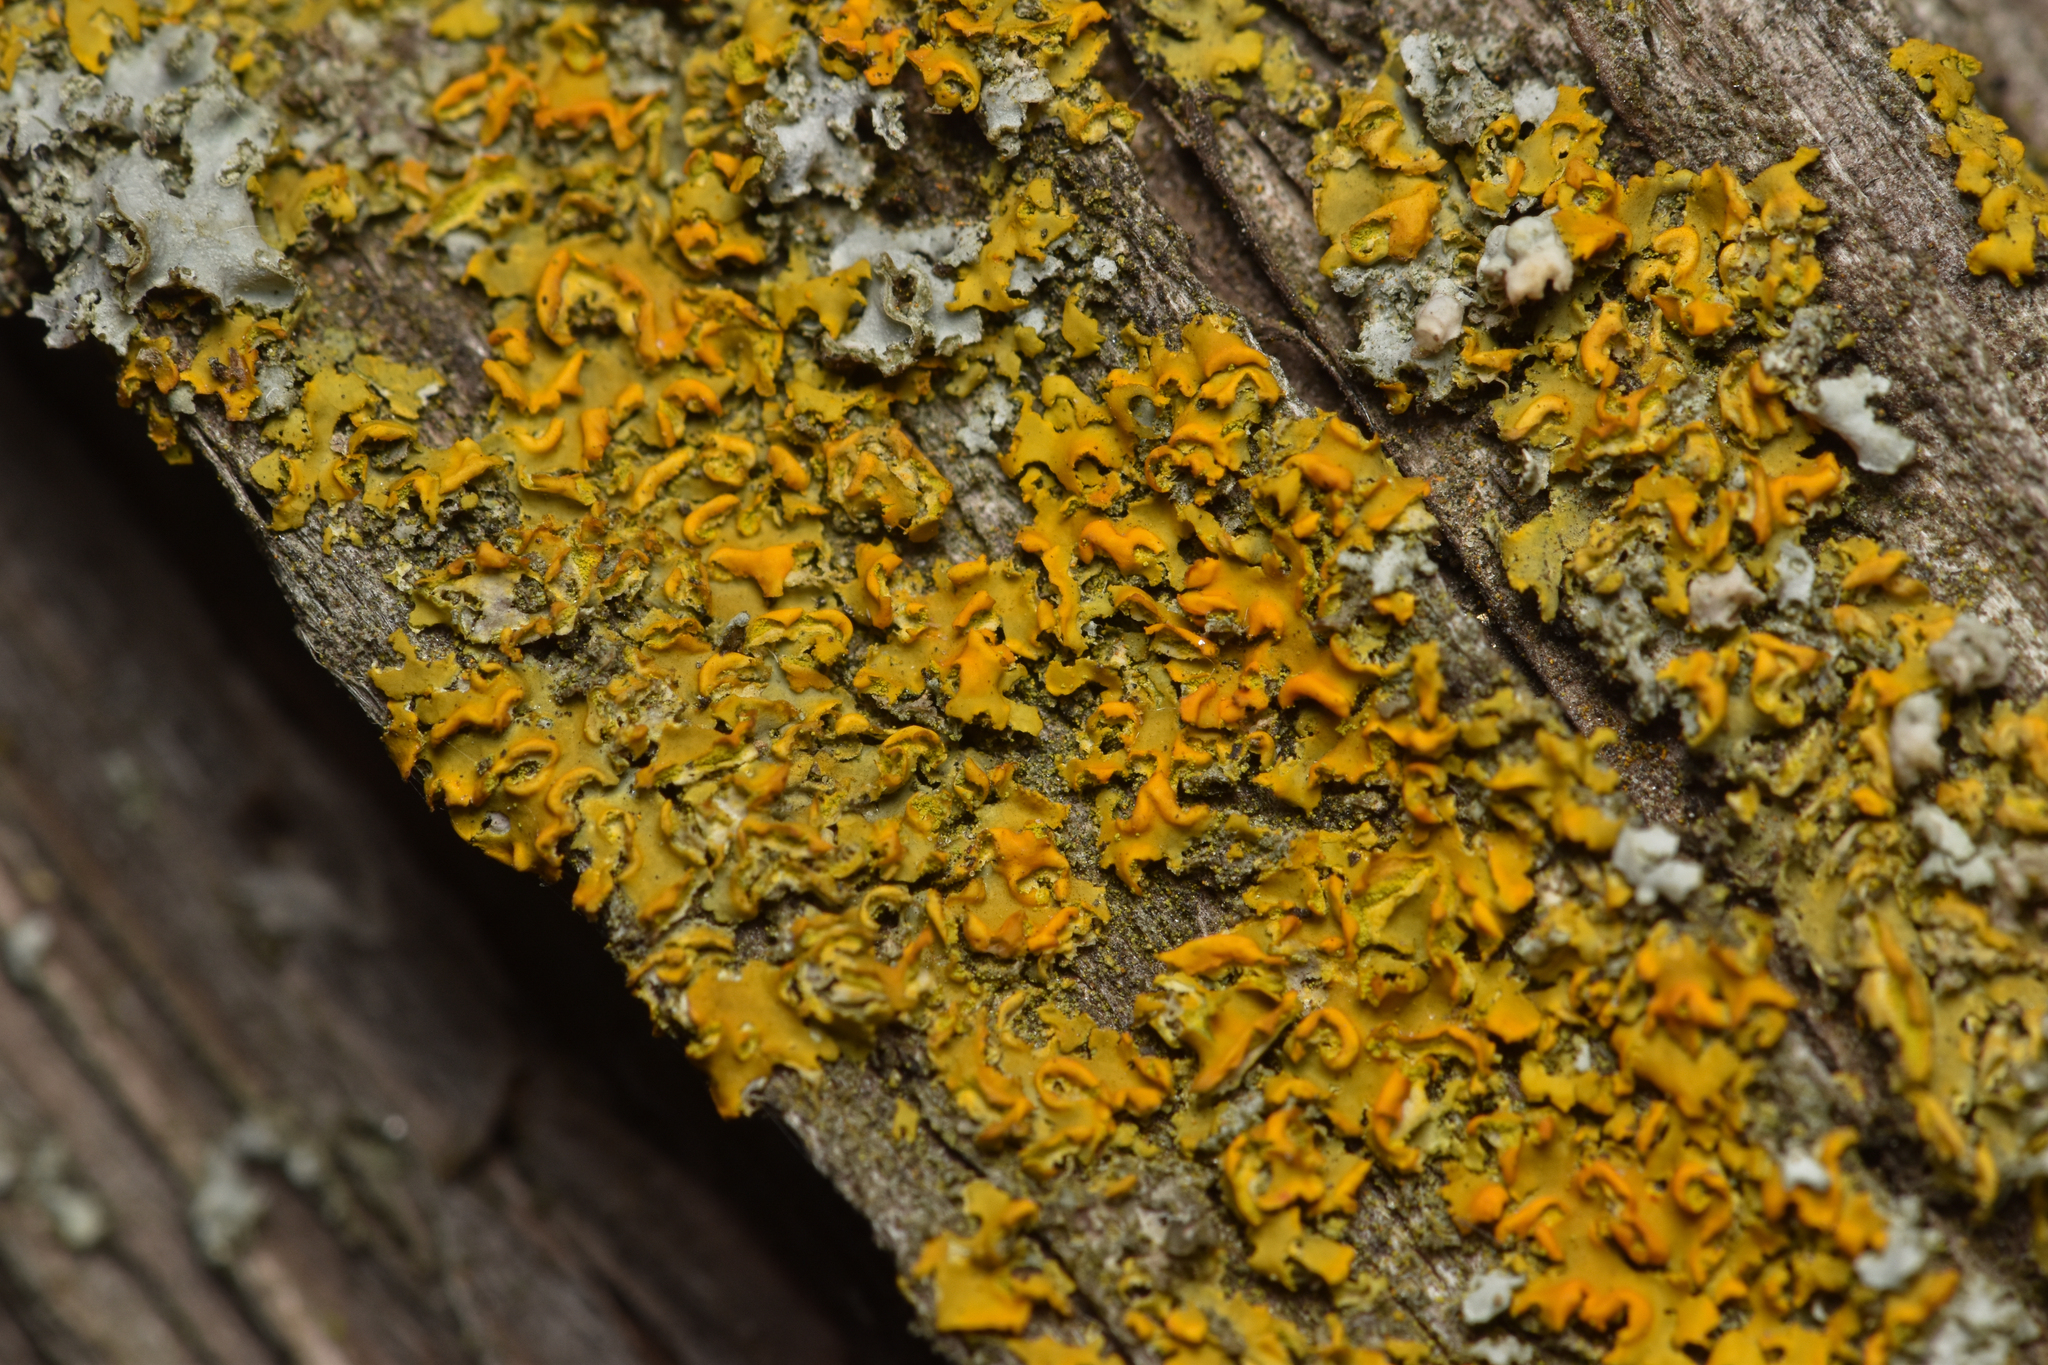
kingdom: Fungi
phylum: Ascomycota
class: Lecanoromycetes
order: Teloschistales
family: Teloschistaceae
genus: Oxneria
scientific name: Oxneria fallax
